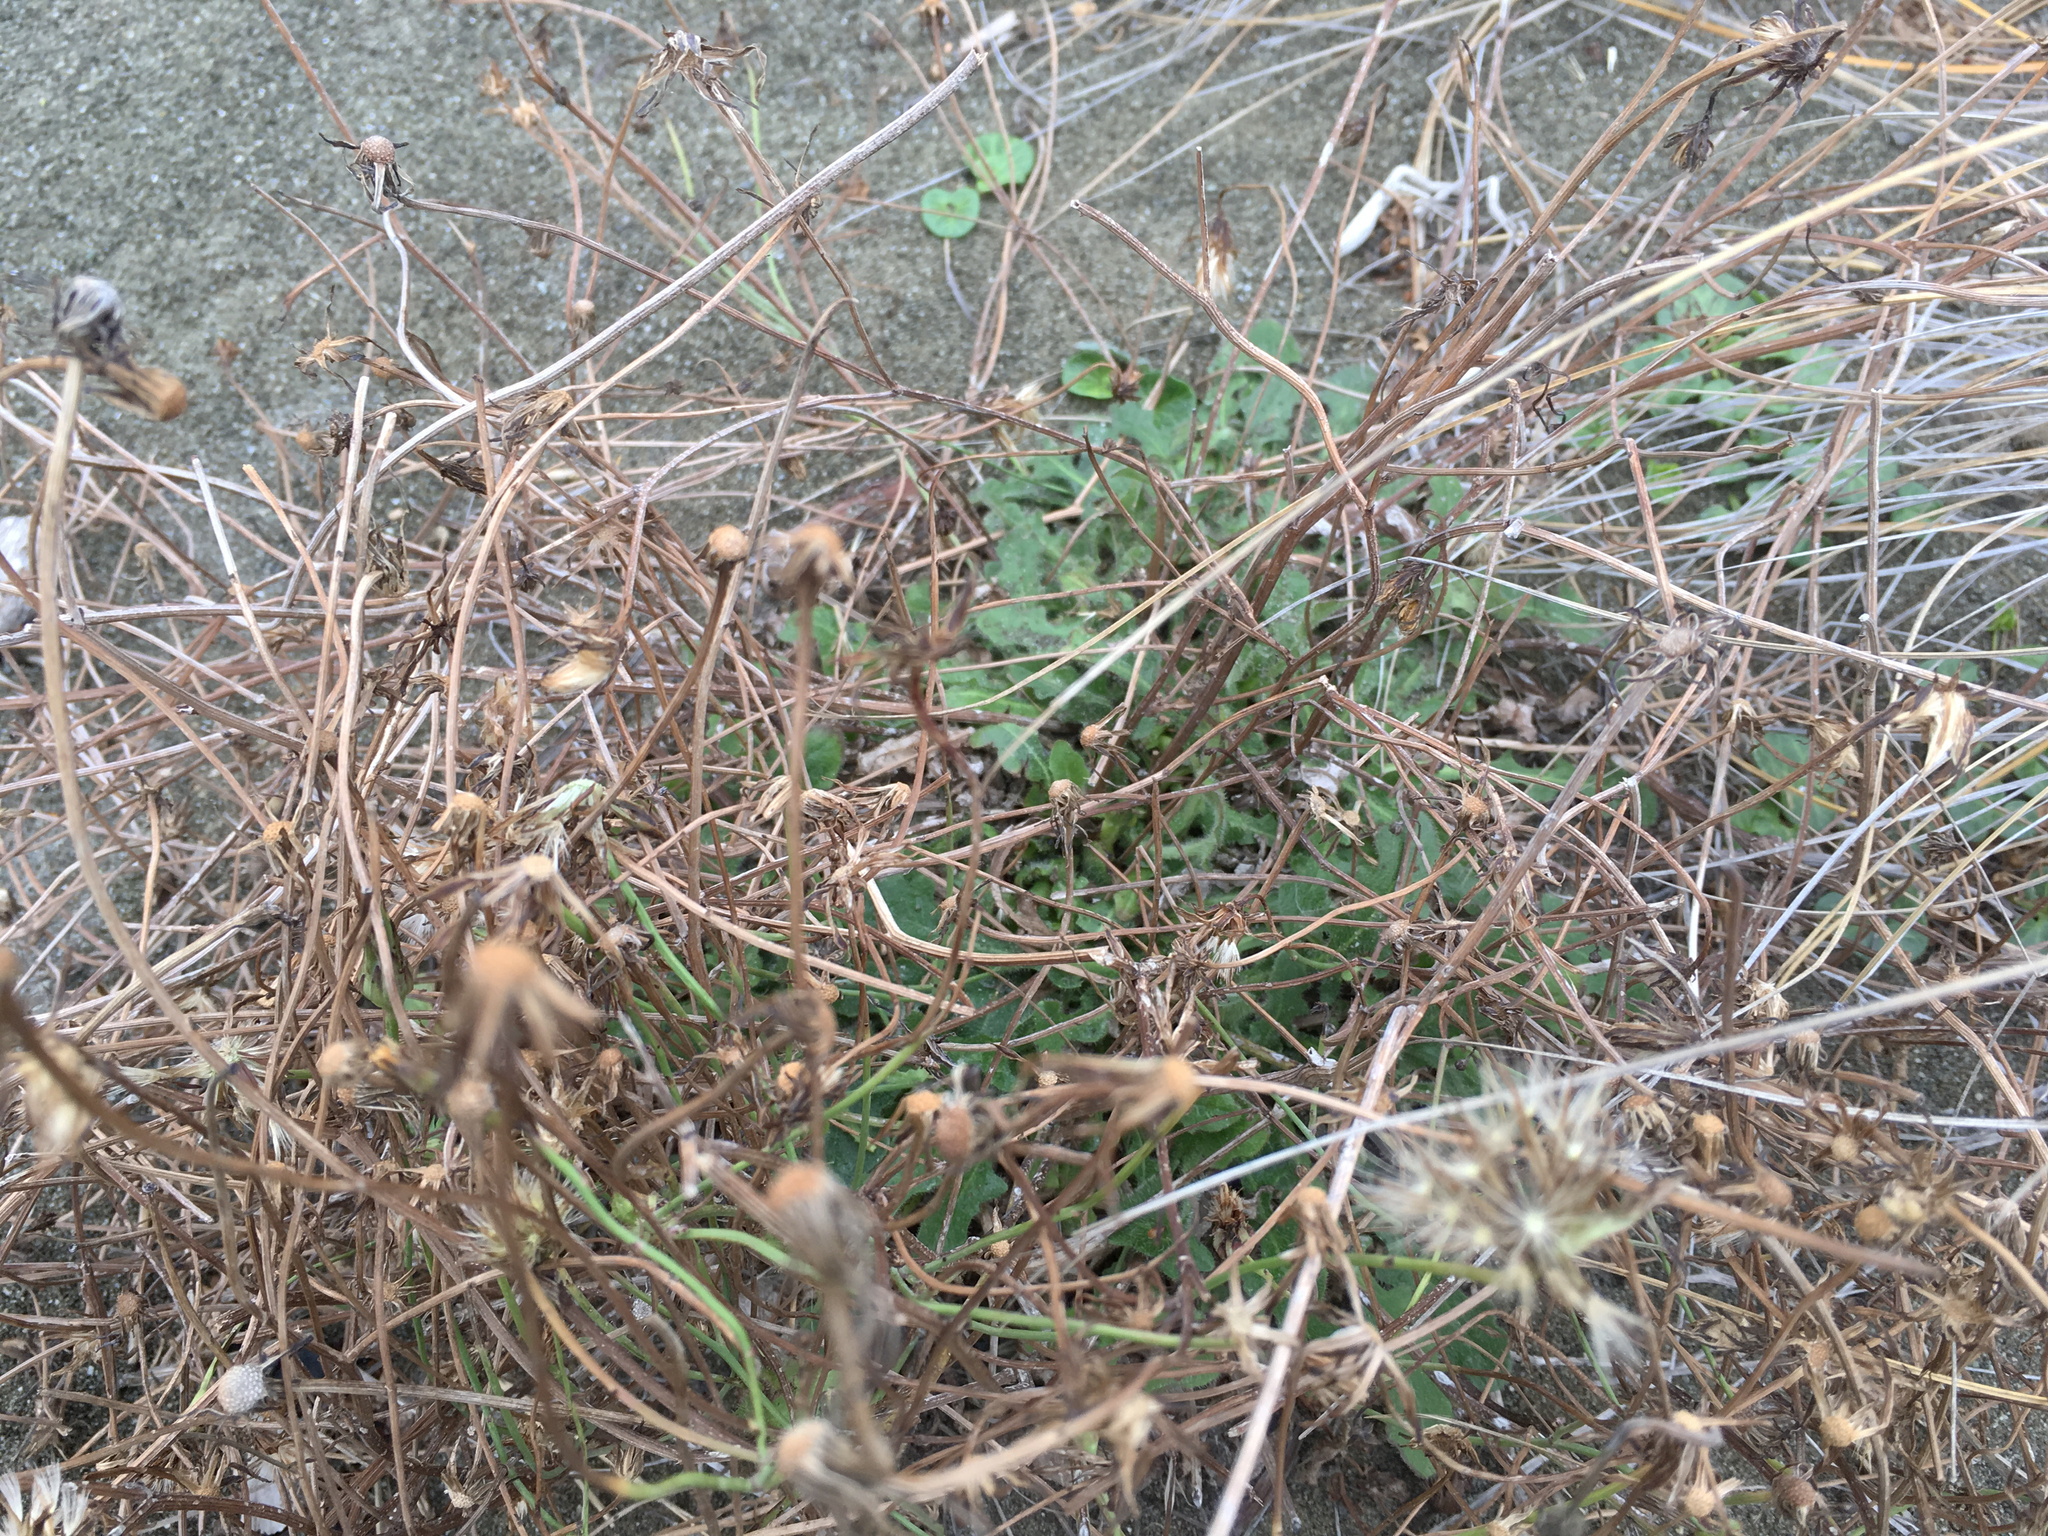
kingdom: Plantae
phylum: Tracheophyta
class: Magnoliopsida
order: Asterales
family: Asteraceae
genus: Hypochaeris
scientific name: Hypochaeris radicata
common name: Flatweed
